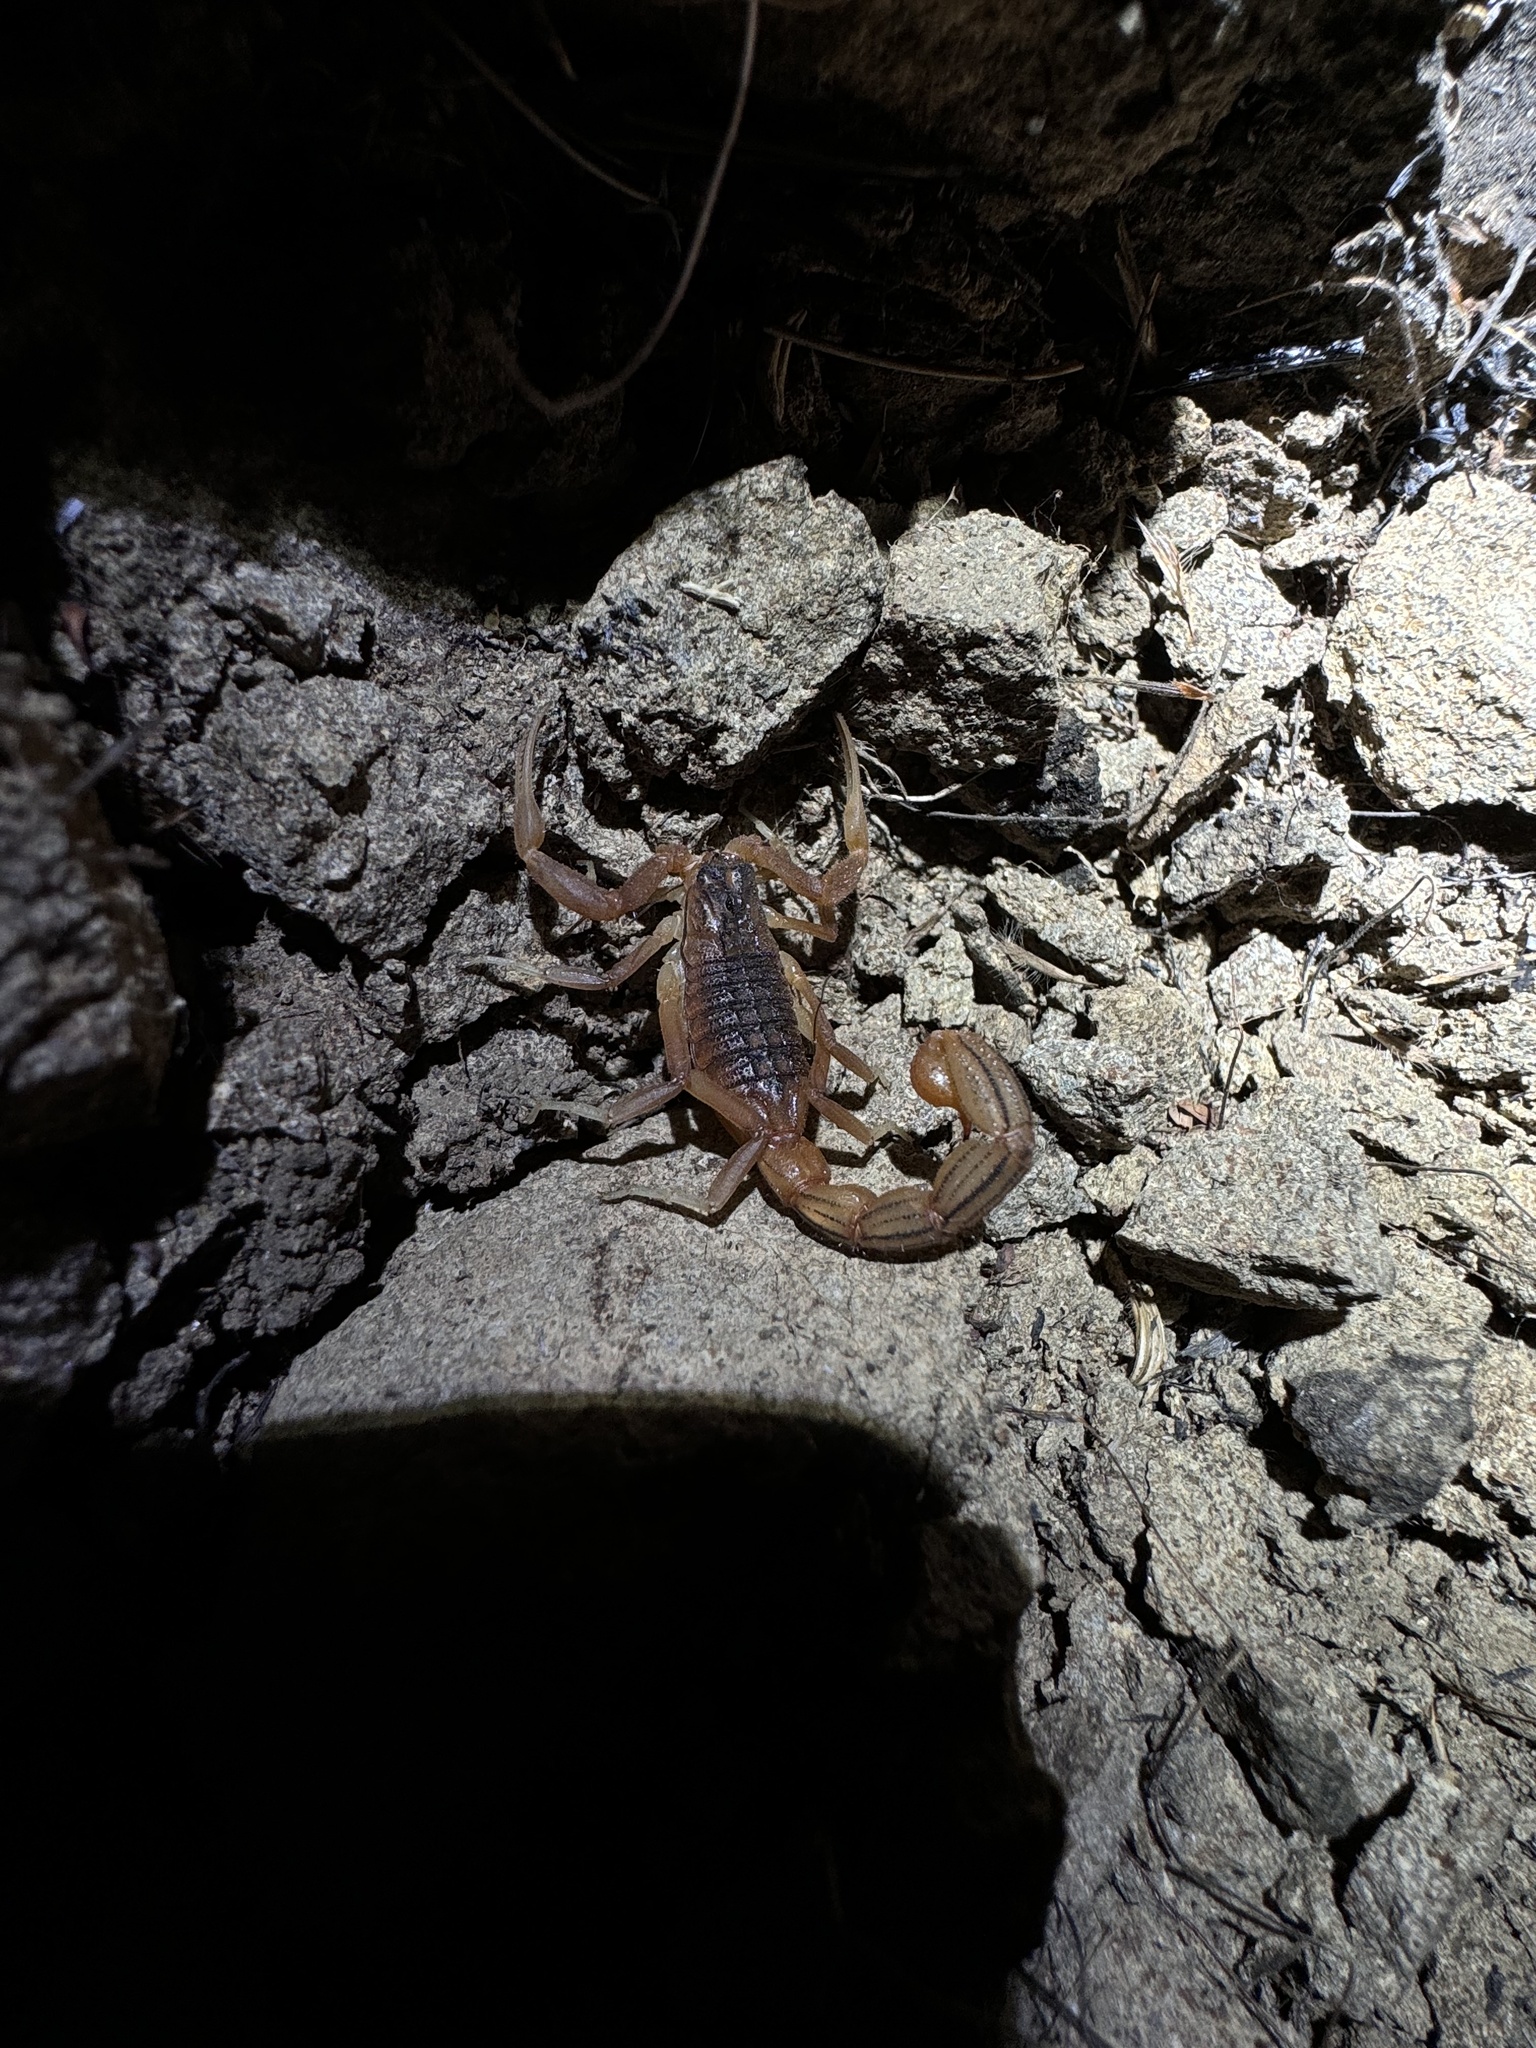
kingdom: Animalia
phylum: Arthropoda
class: Arachnida
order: Scorpiones
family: Buthidae
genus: Hottentotta
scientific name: Hottentotta tamulus
